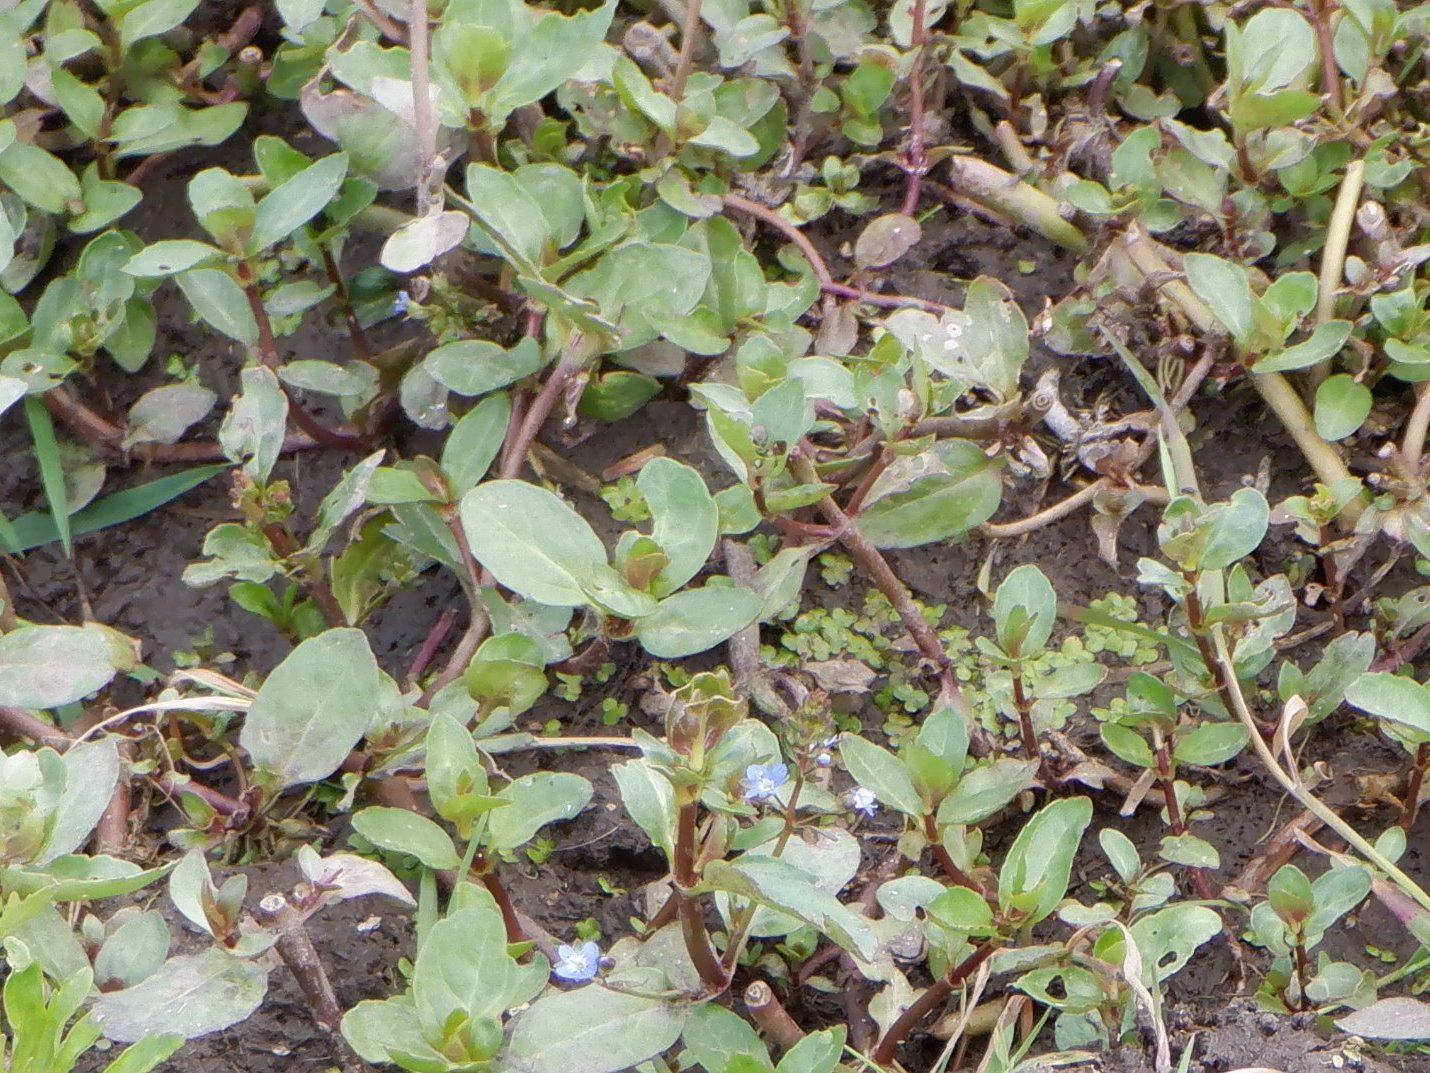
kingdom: Plantae
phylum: Tracheophyta
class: Magnoliopsida
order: Lamiales
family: Plantaginaceae
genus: Veronica
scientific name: Veronica beccabunga
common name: Brooklime
